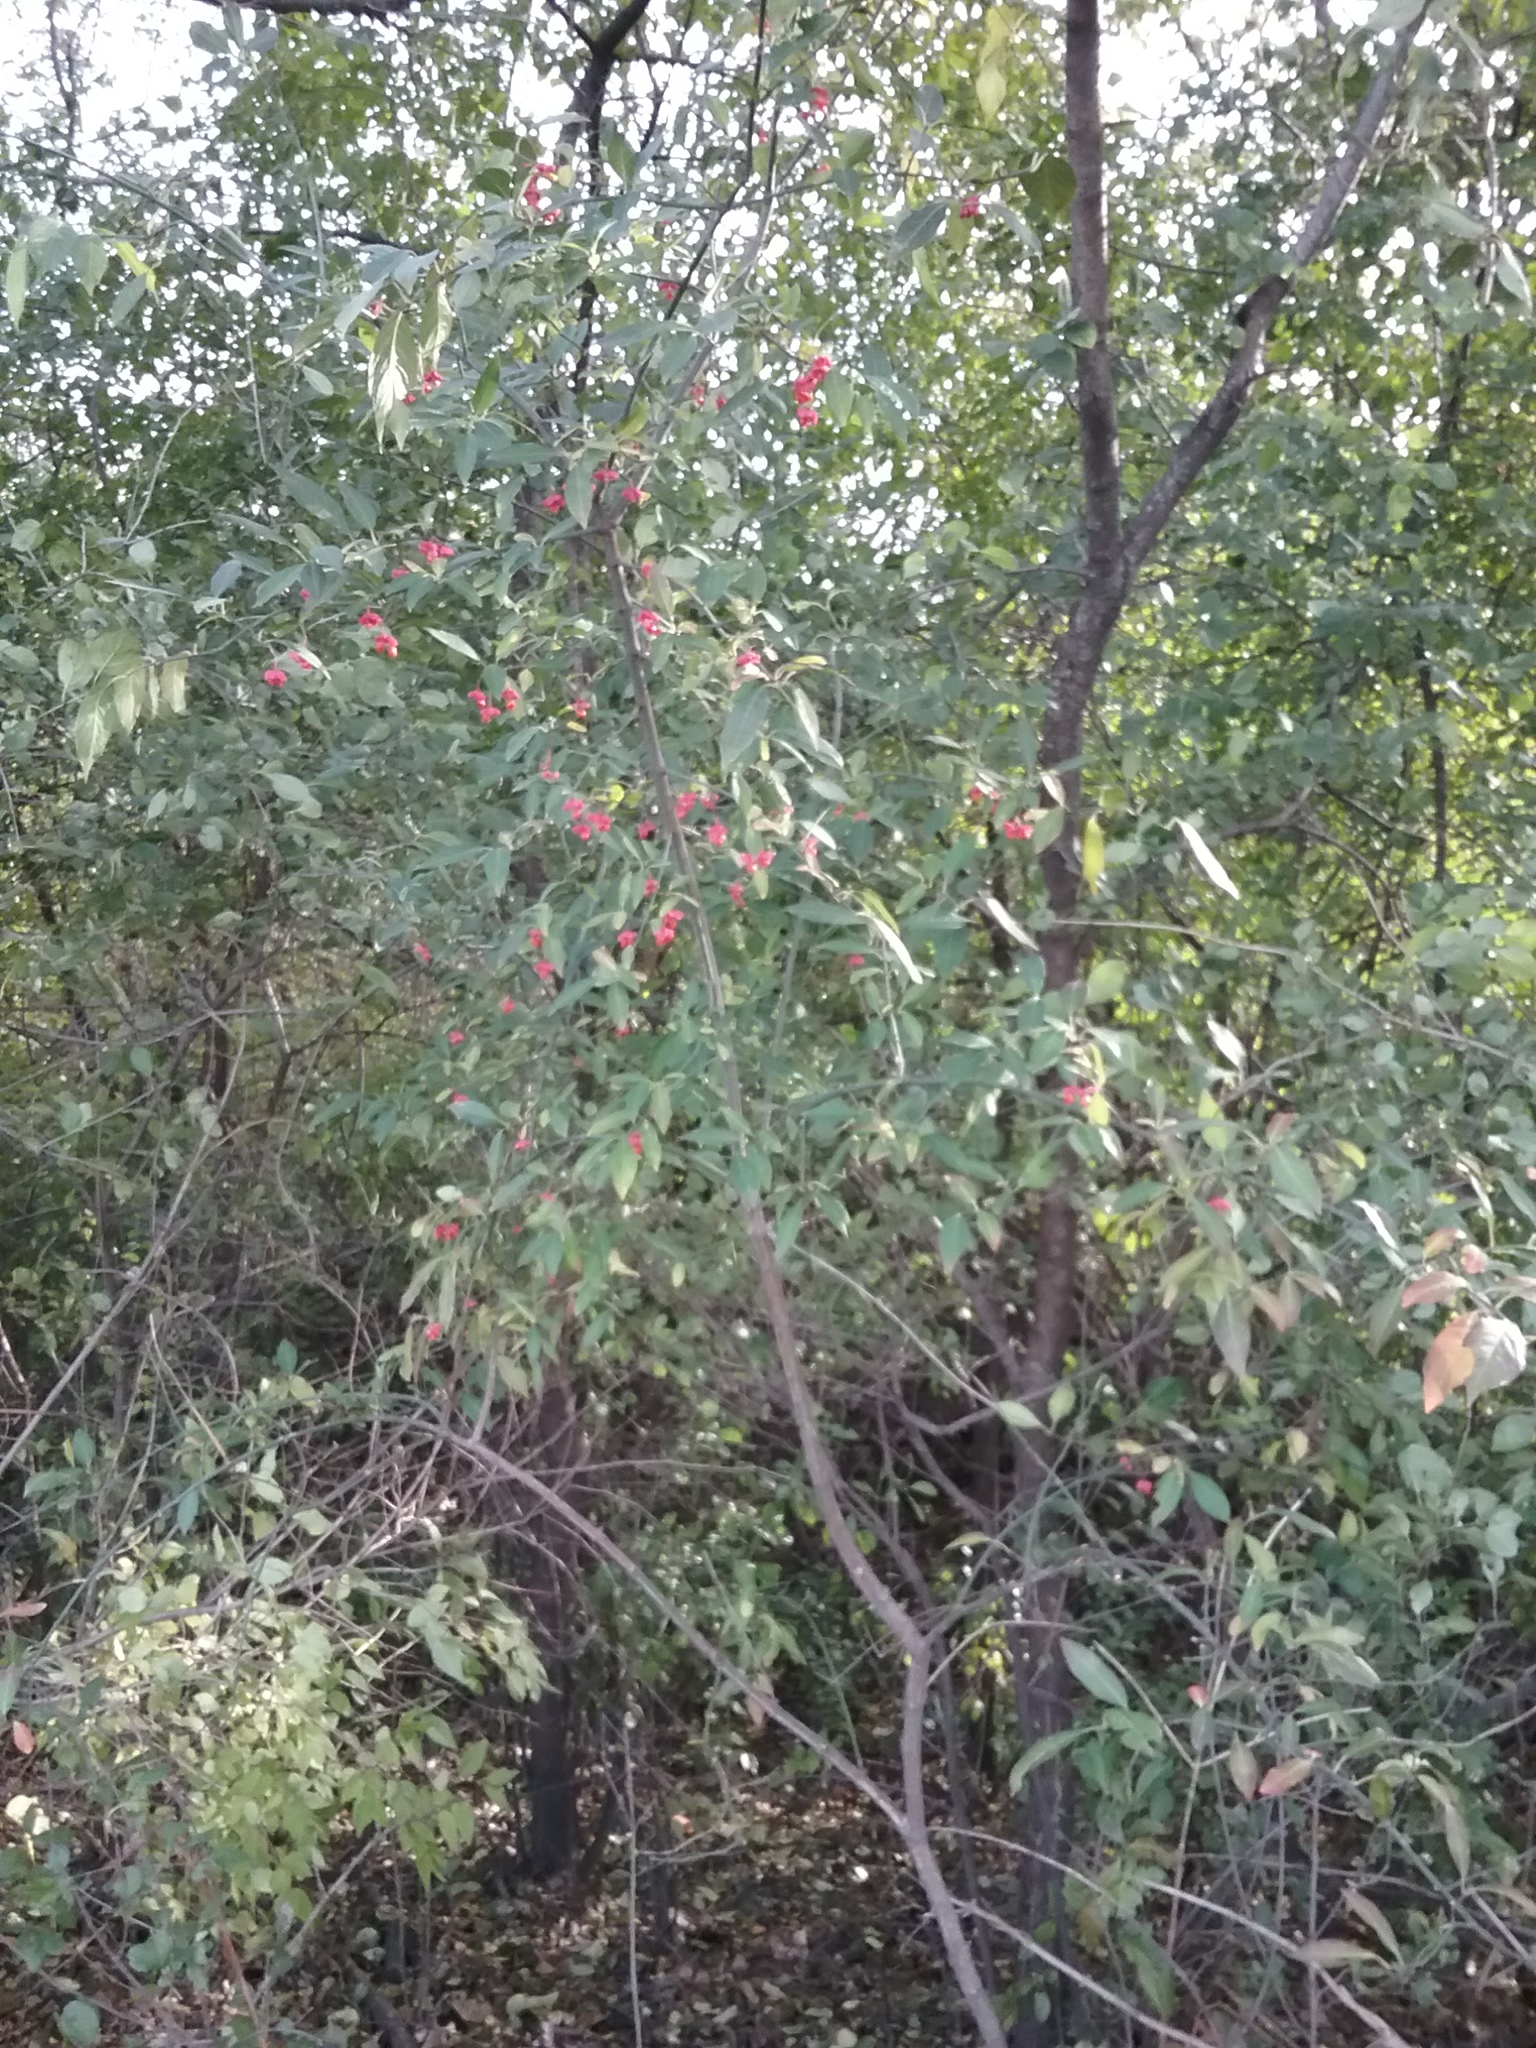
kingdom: Plantae
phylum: Tracheophyta
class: Magnoliopsida
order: Celastrales
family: Celastraceae
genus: Euonymus
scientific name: Euonymus europaeus
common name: Spindle
